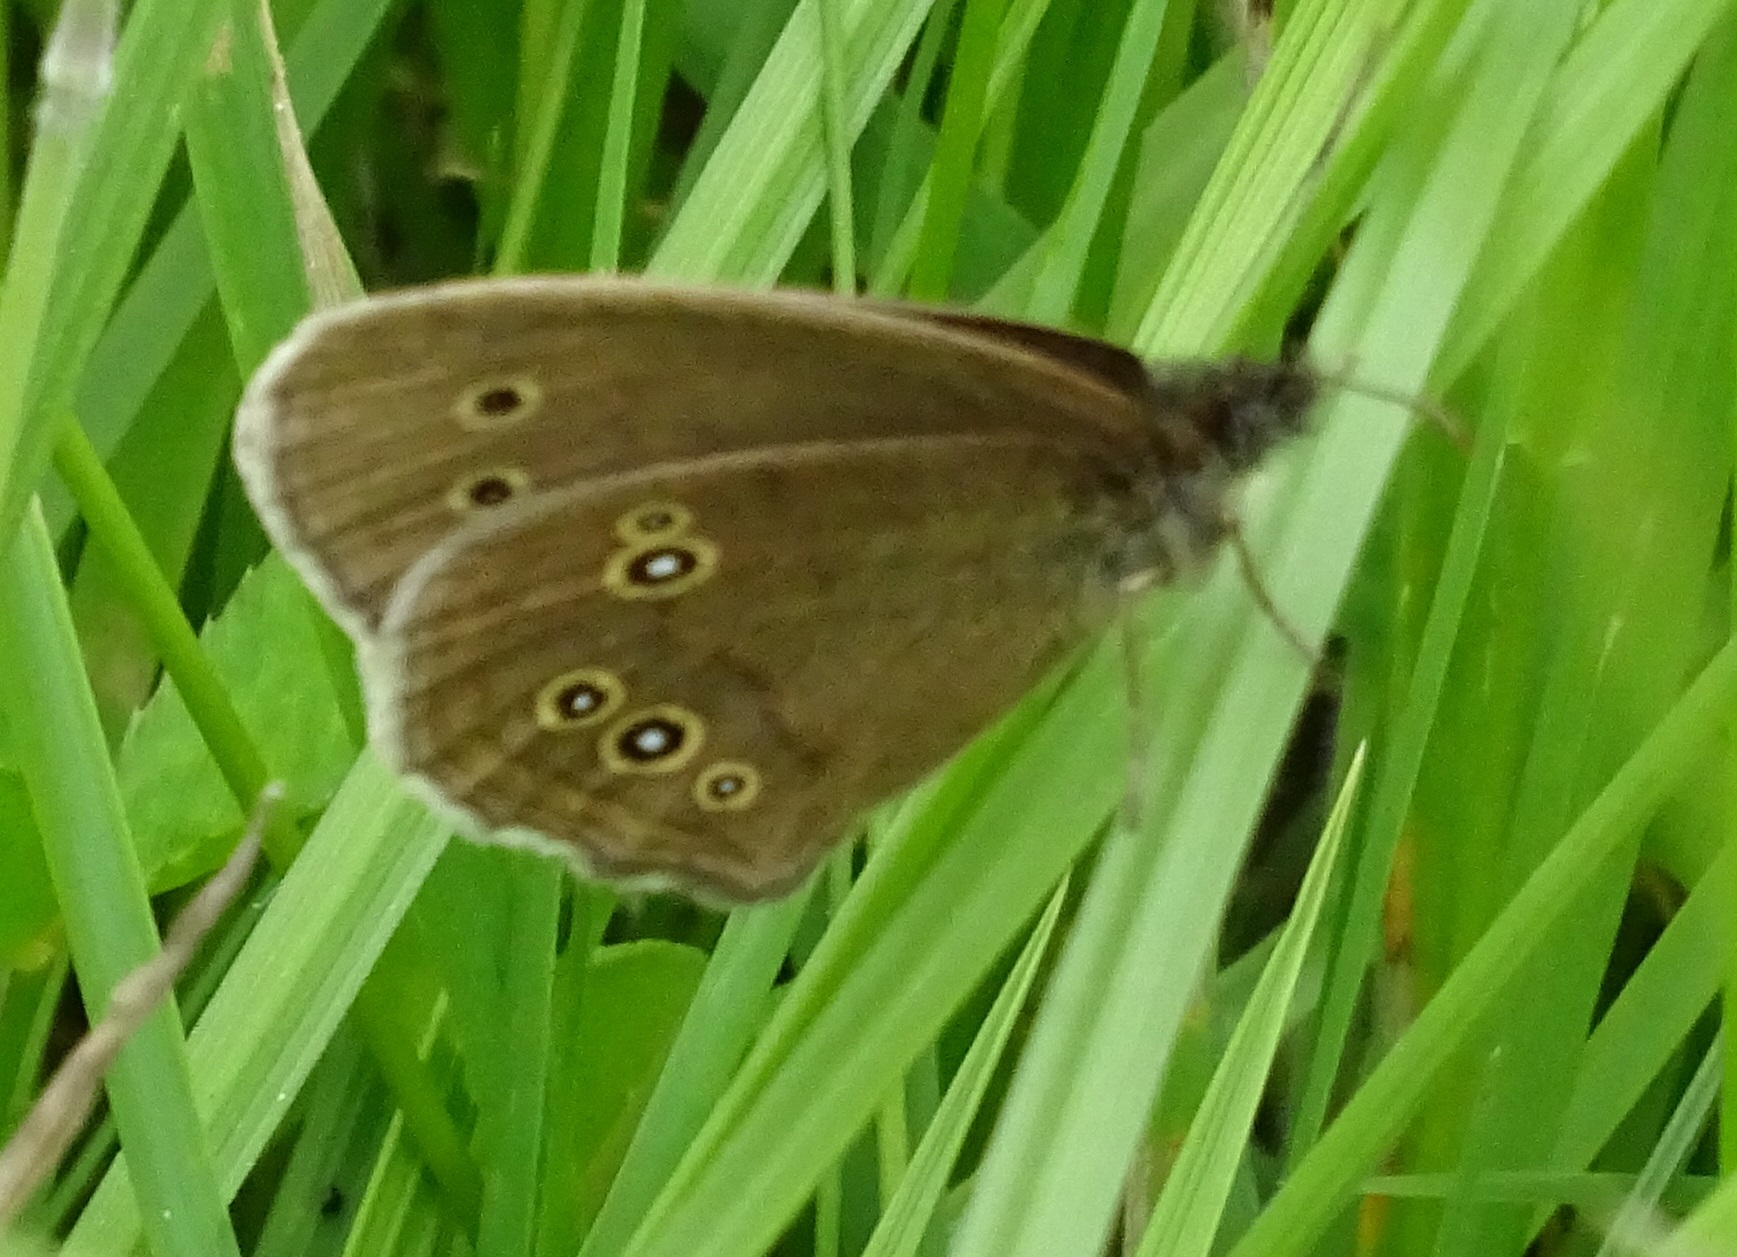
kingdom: Animalia
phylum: Arthropoda
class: Insecta
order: Lepidoptera
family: Nymphalidae
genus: Aphantopus
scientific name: Aphantopus hyperantus
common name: Ringlet
